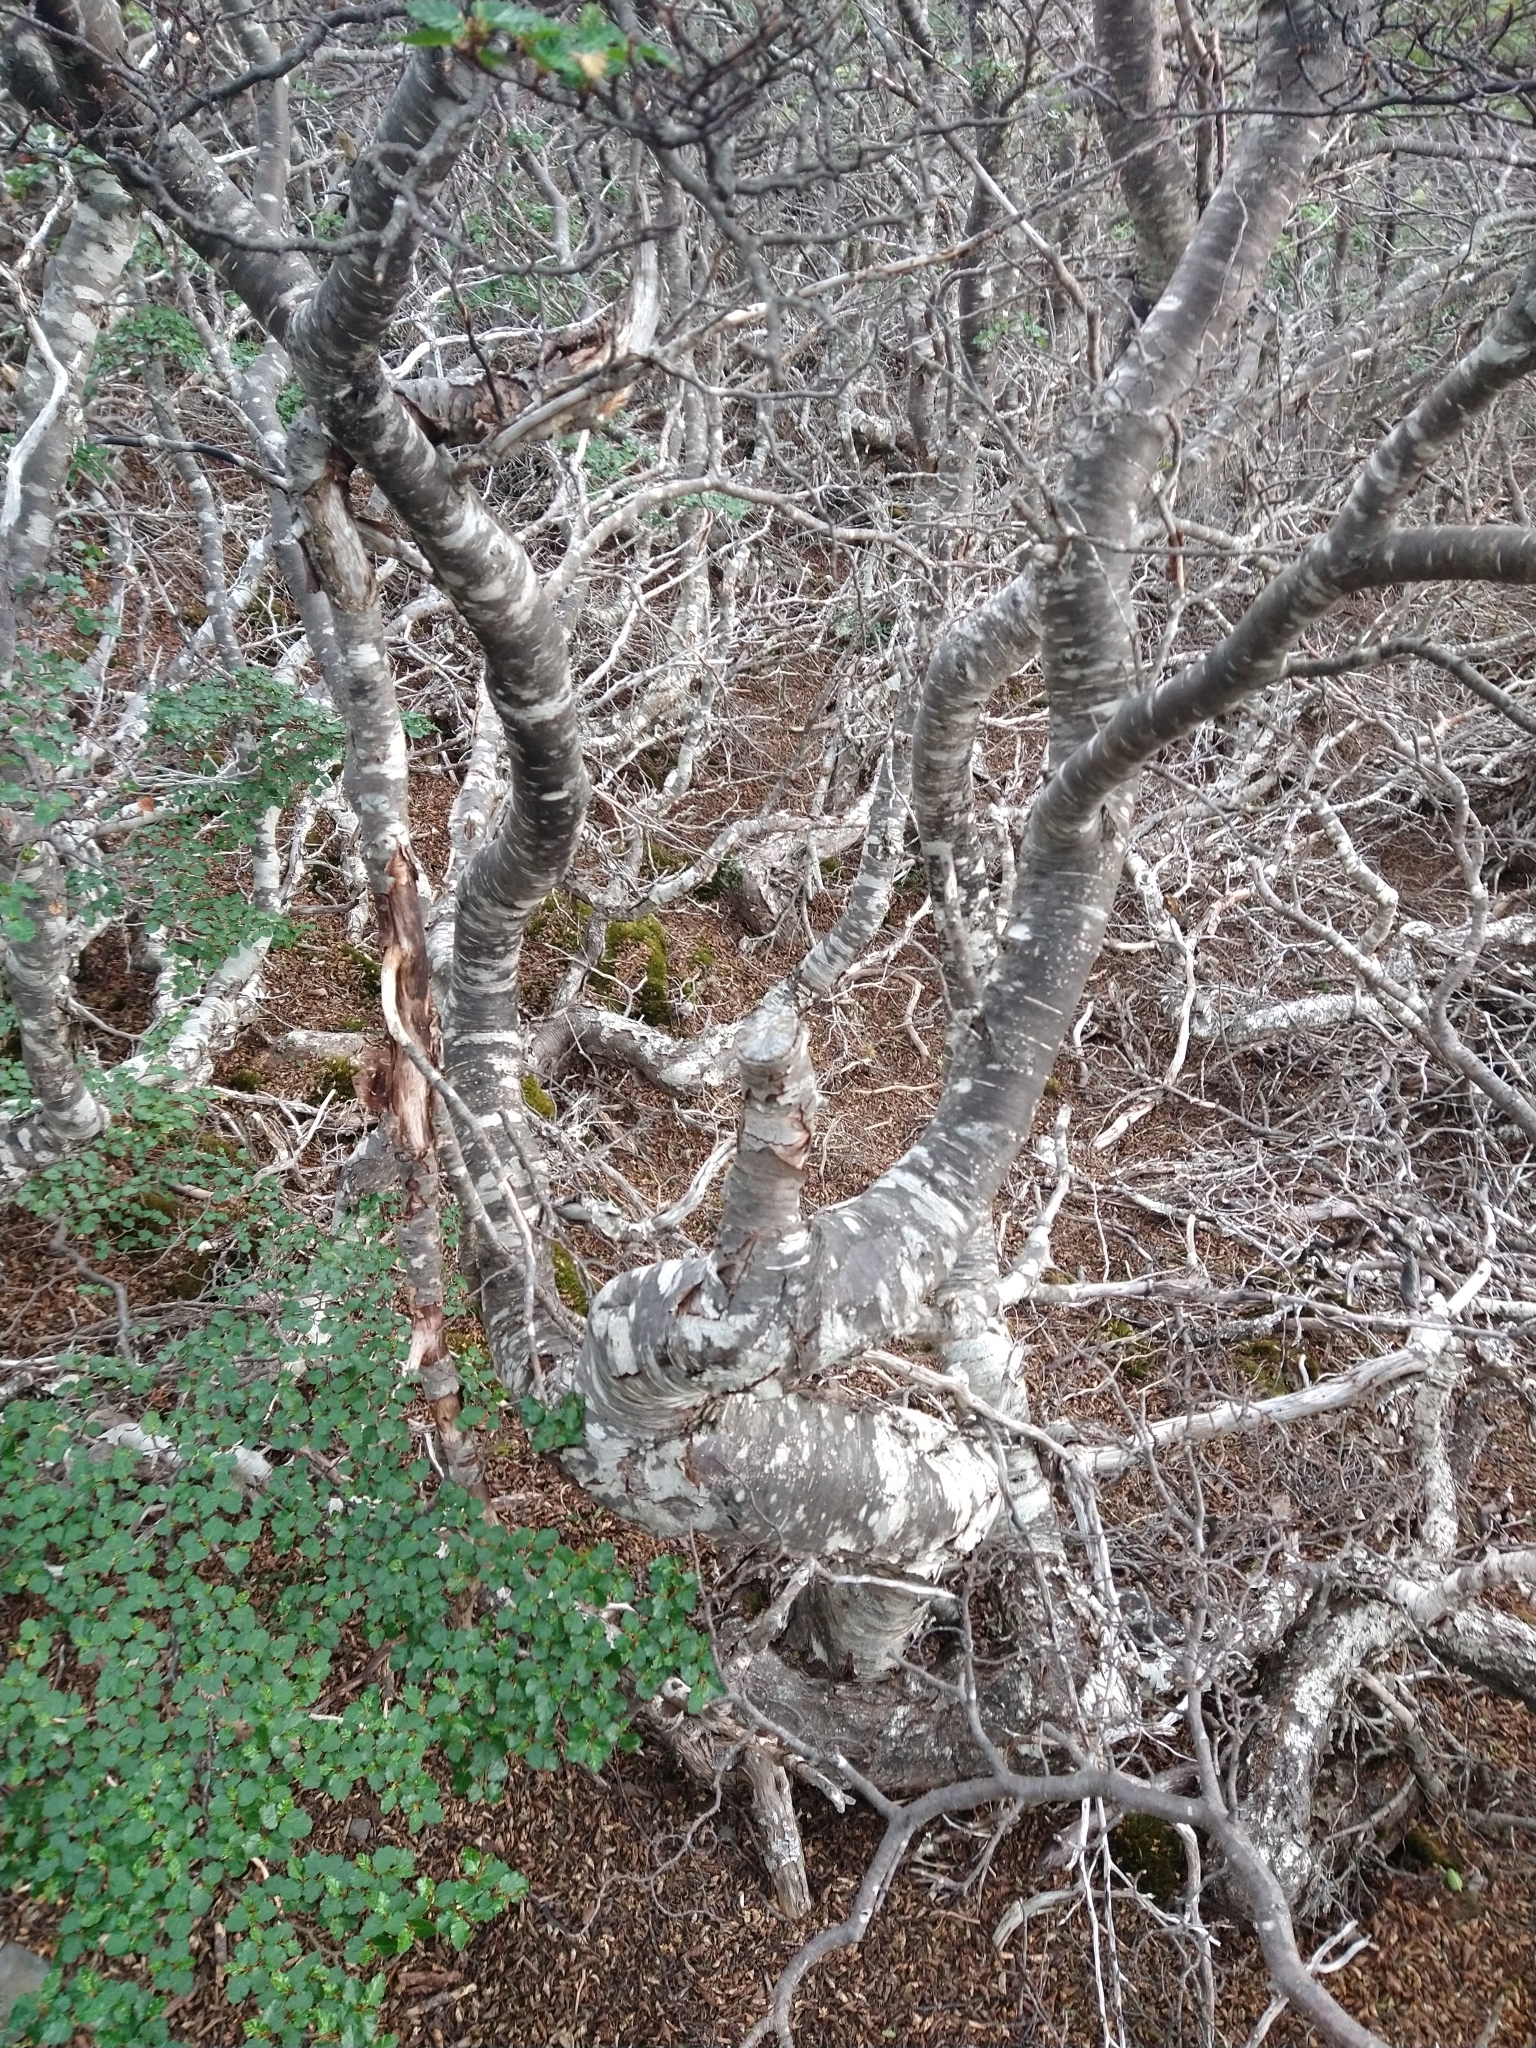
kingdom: Plantae
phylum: Tracheophyta
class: Magnoliopsida
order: Fagales
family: Nothofagaceae
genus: Nothofagus
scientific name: Nothofagus pumilio
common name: Lenga beech
